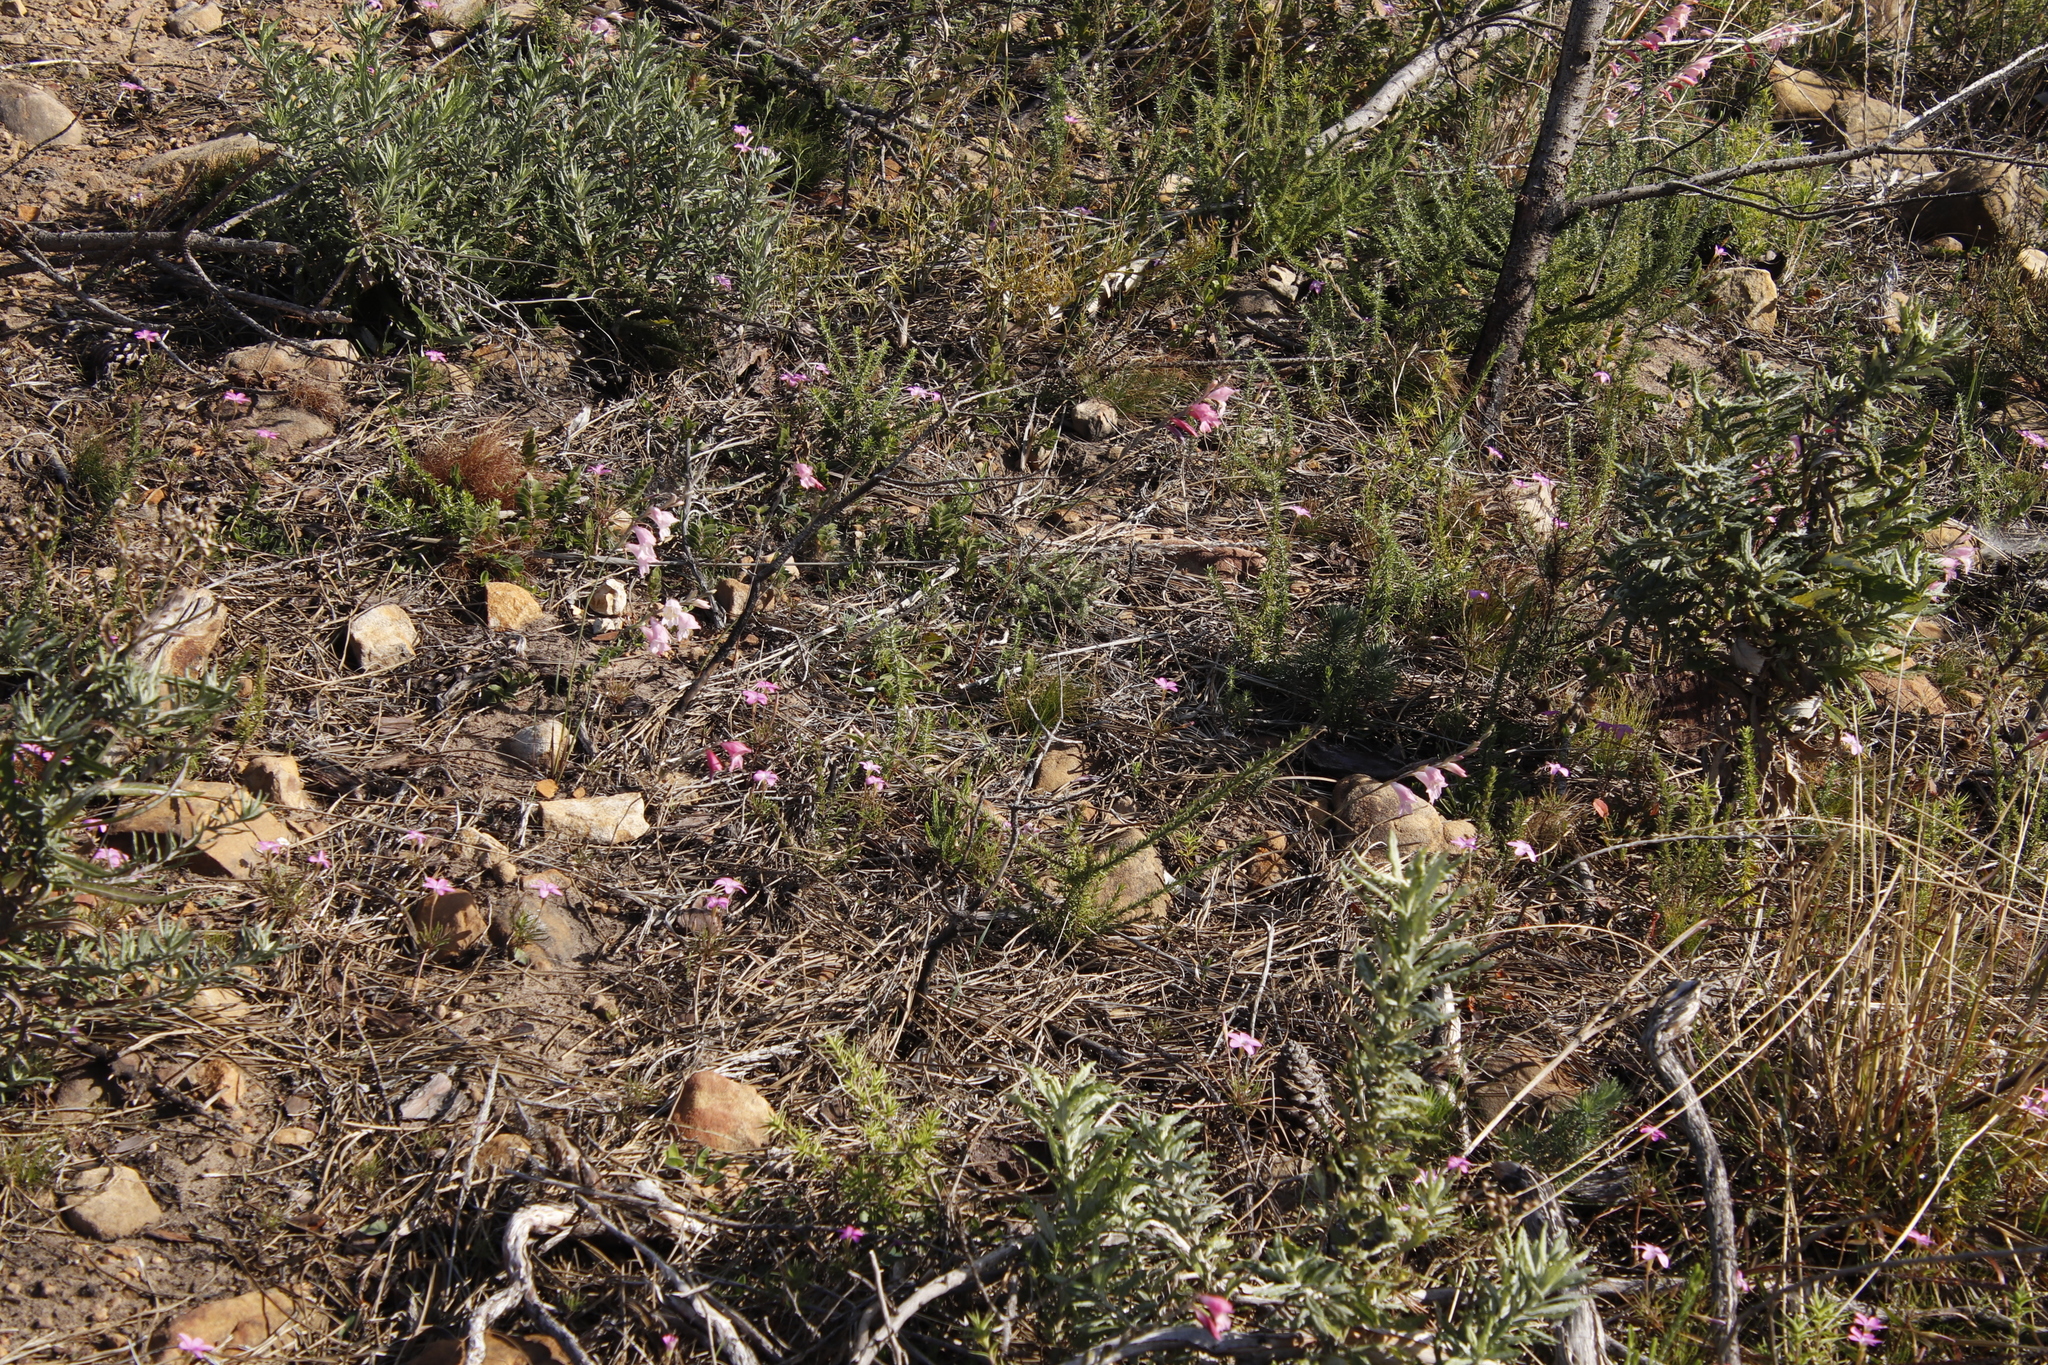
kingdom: Plantae
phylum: Tracheophyta
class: Liliopsida
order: Asparagales
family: Iridaceae
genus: Gladiolus
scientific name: Gladiolus brevifolius
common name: March pypie
